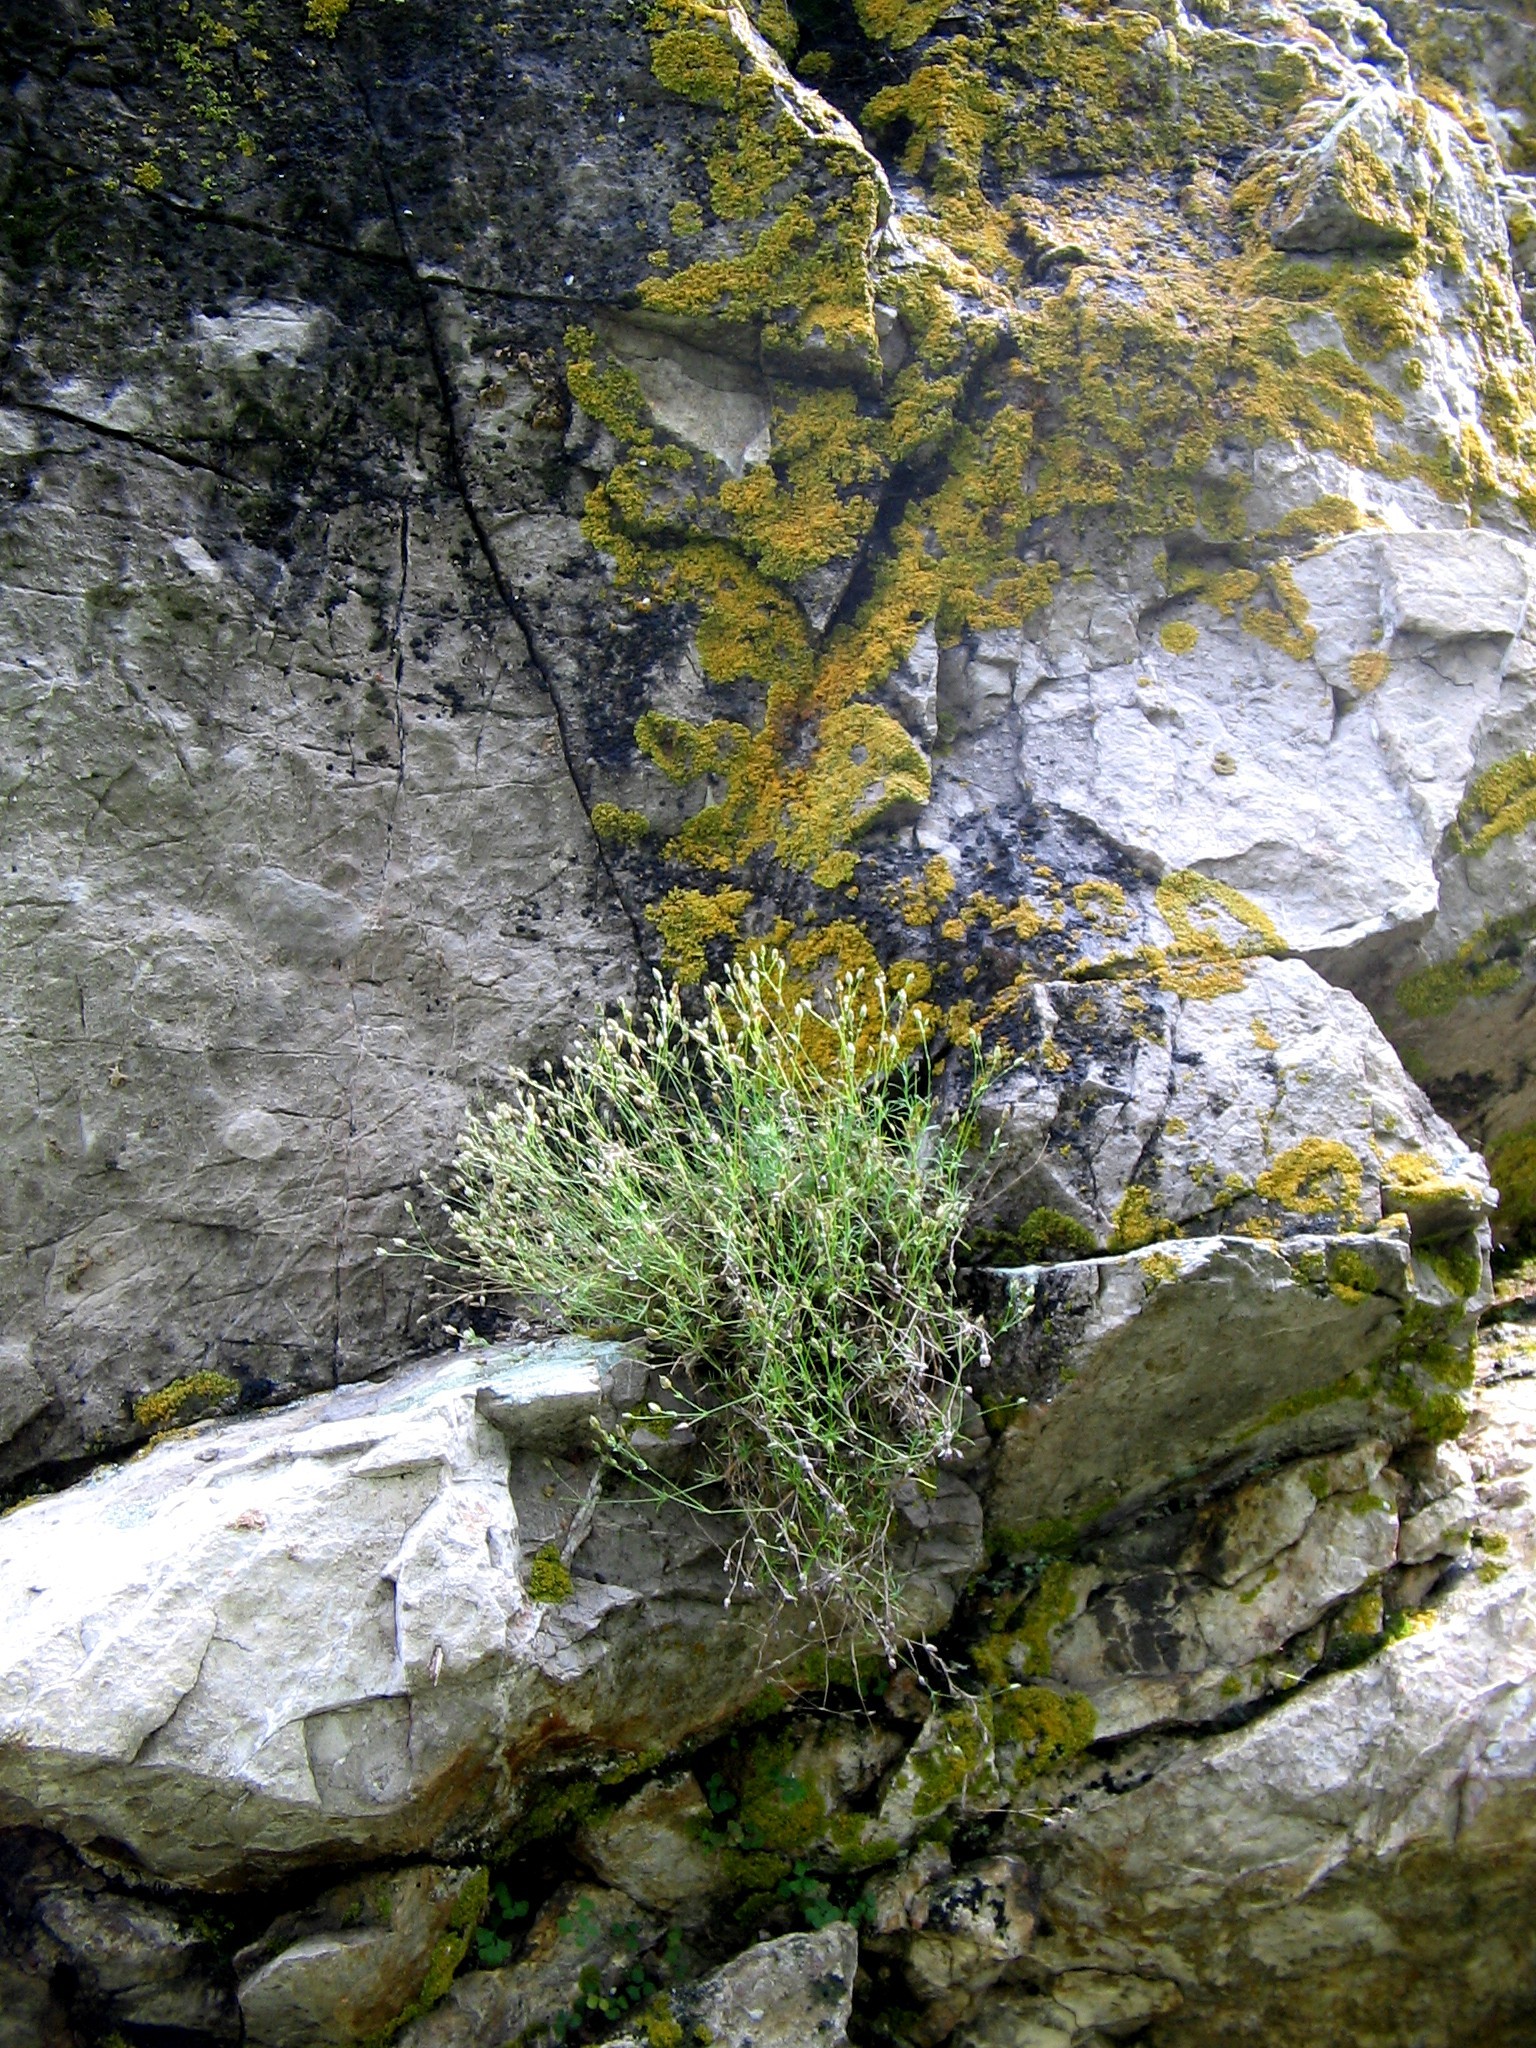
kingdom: Plantae
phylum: Tracheophyta
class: Magnoliopsida
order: Caryophyllales
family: Caryophyllaceae
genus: Sabulina
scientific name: Sabulina helmii
